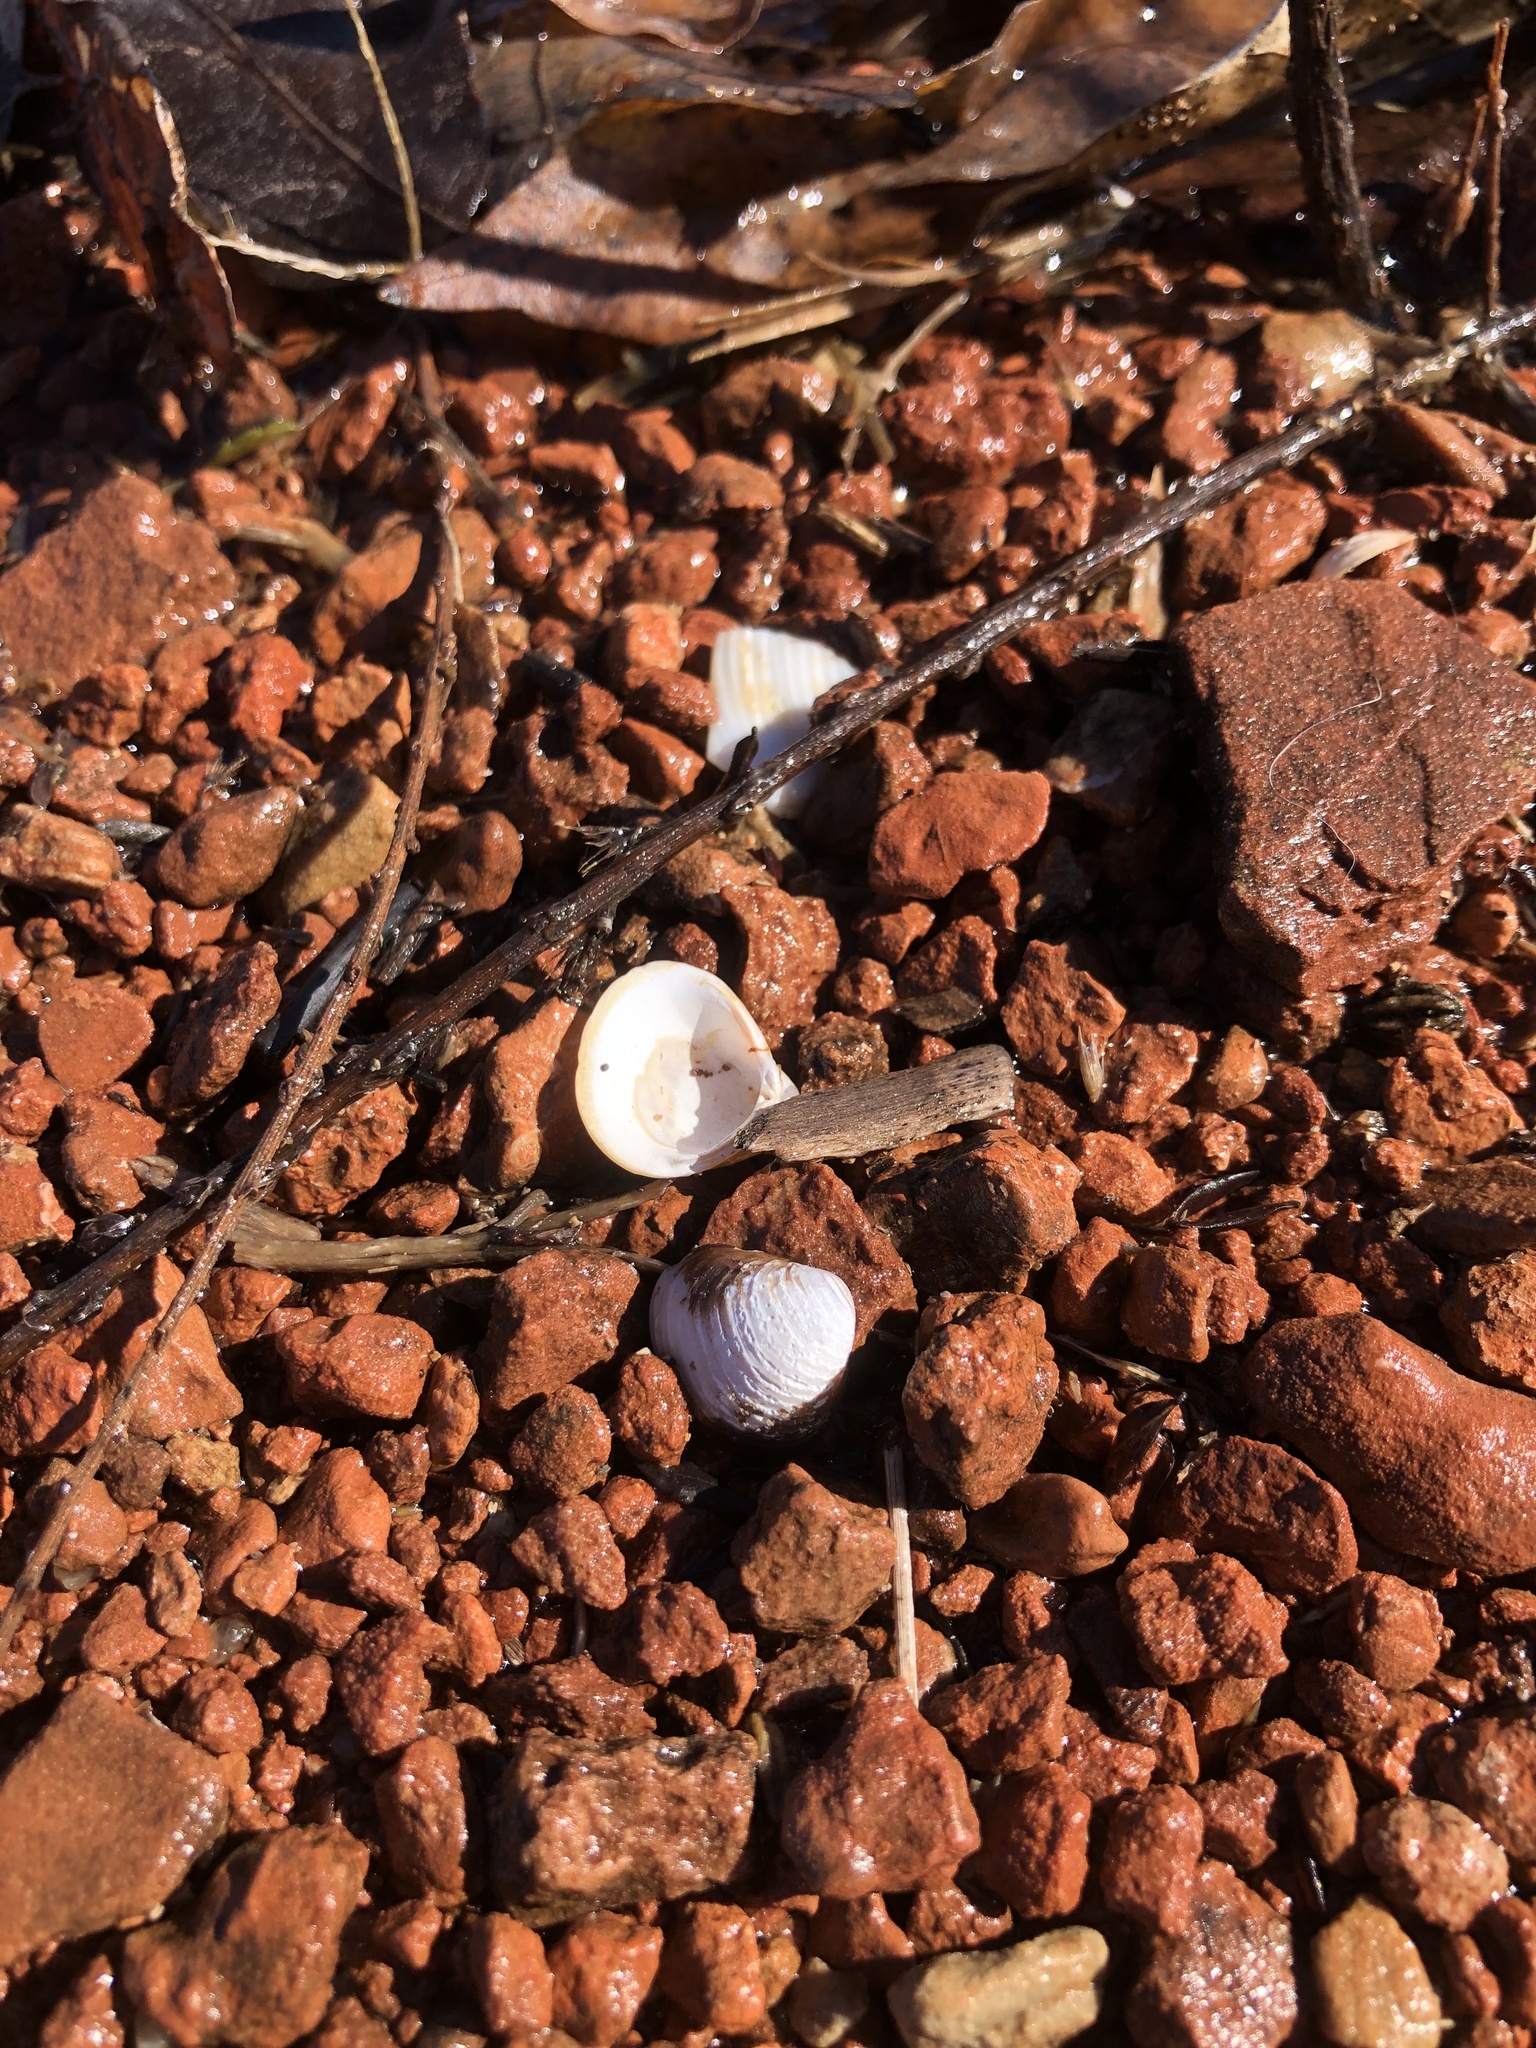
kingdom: Animalia
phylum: Mollusca
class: Bivalvia
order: Venerida
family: Cyrenidae
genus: Corbicula
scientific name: Corbicula fluminea
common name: Asian clam
